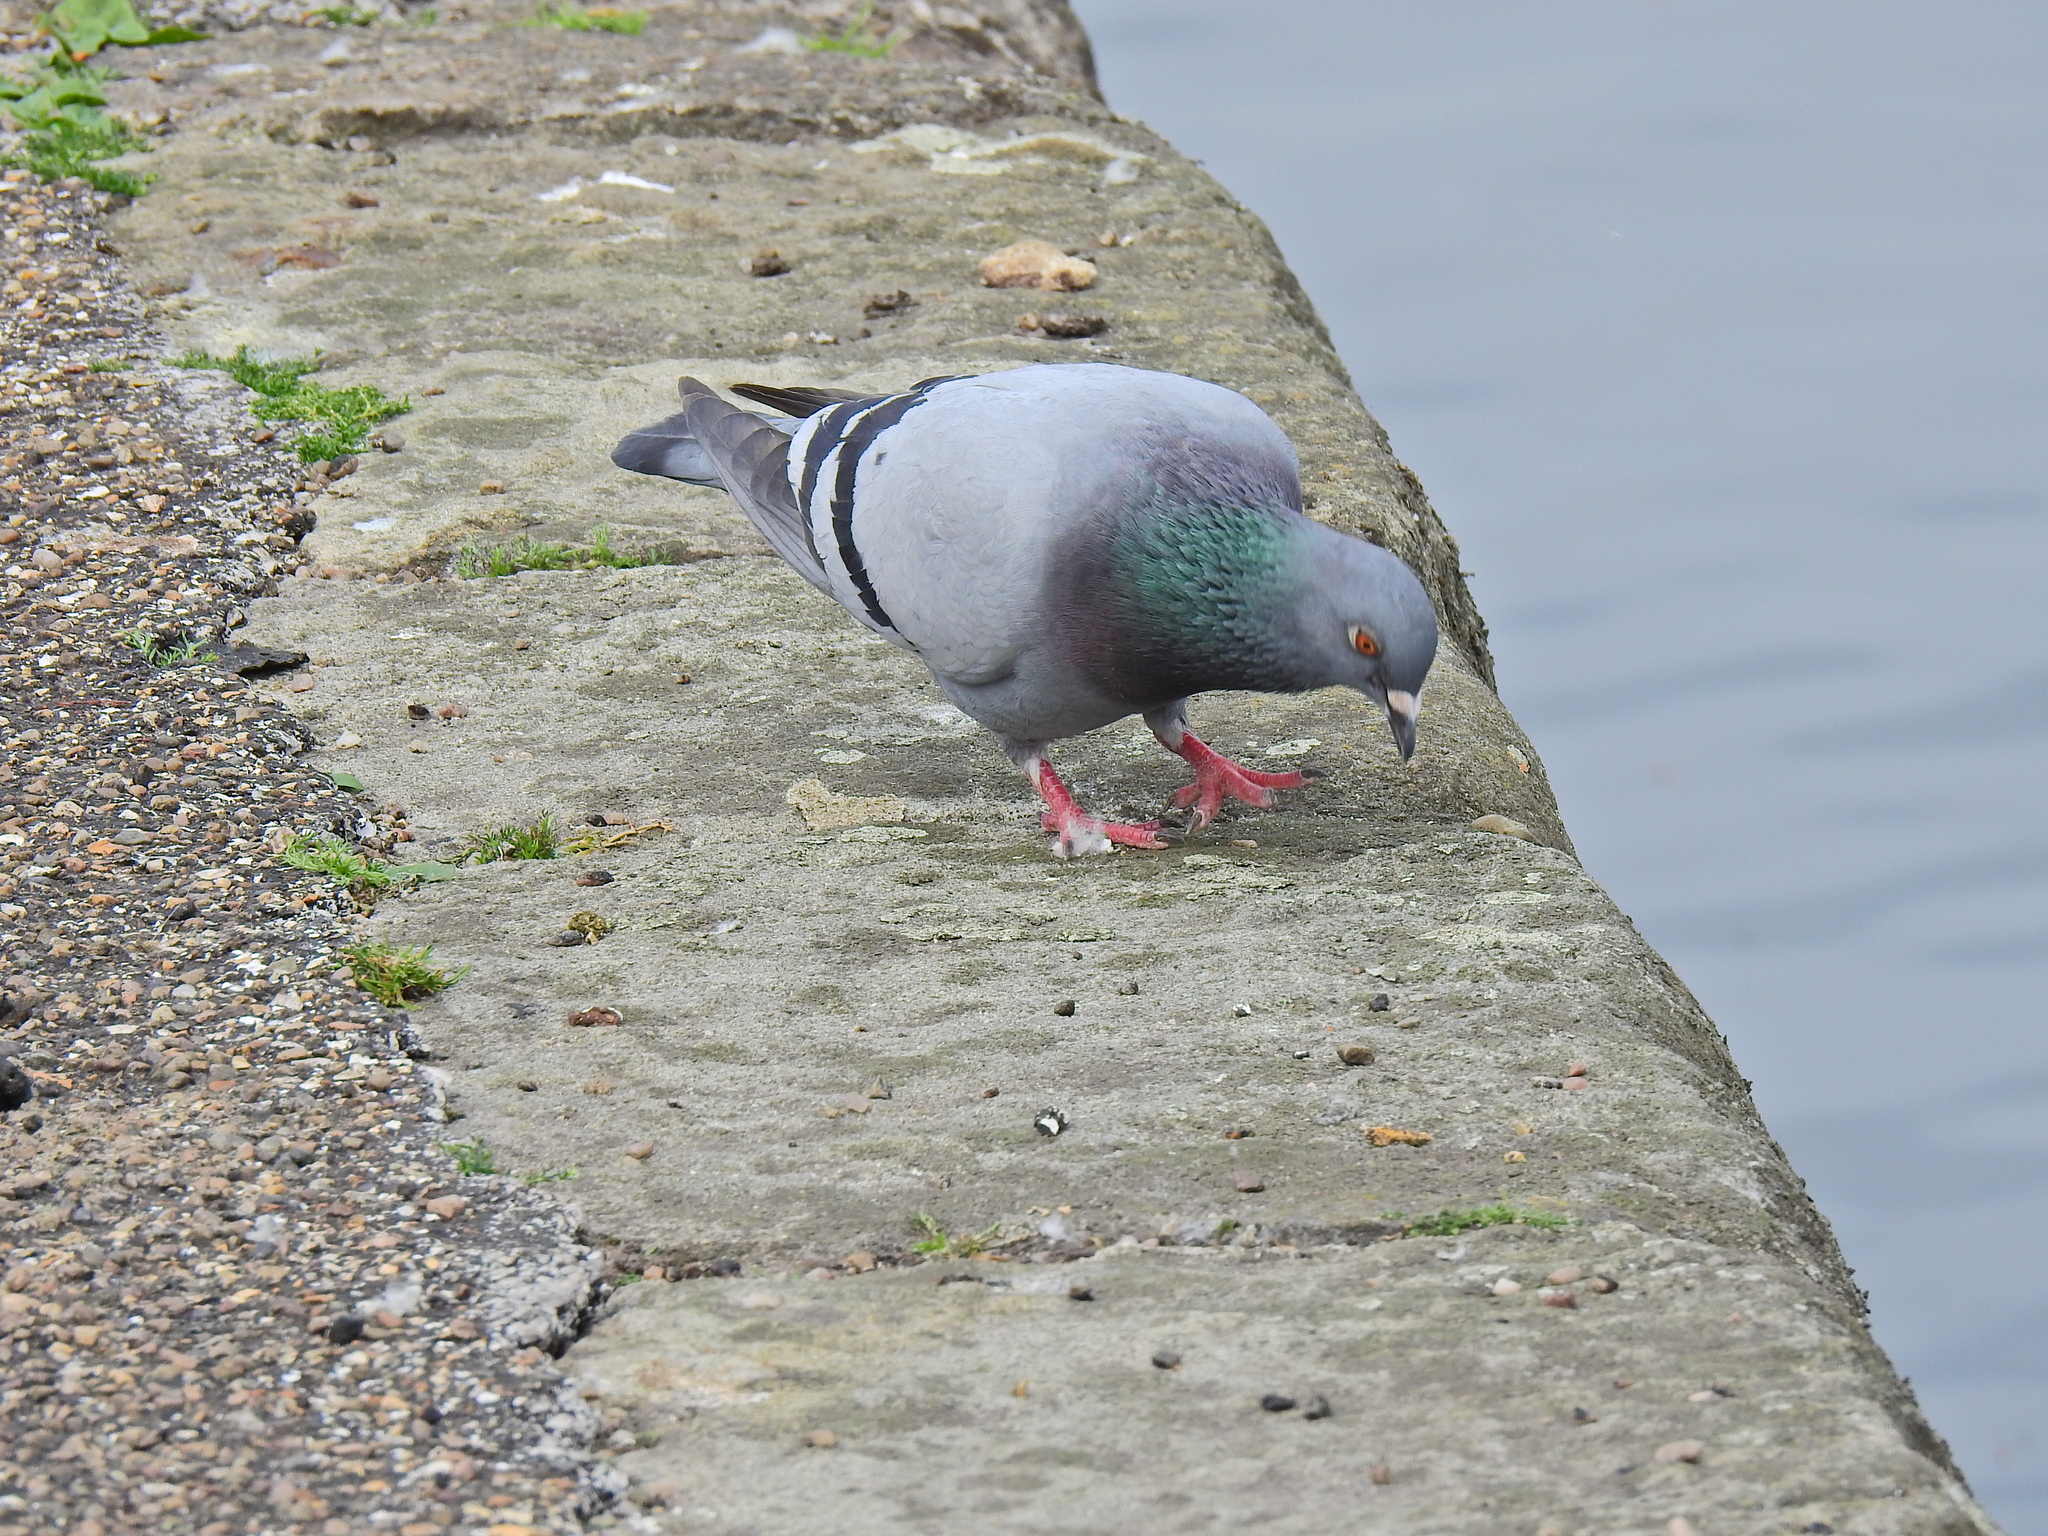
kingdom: Animalia
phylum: Chordata
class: Aves
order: Columbiformes
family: Columbidae
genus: Columba
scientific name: Columba livia
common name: Rock pigeon
